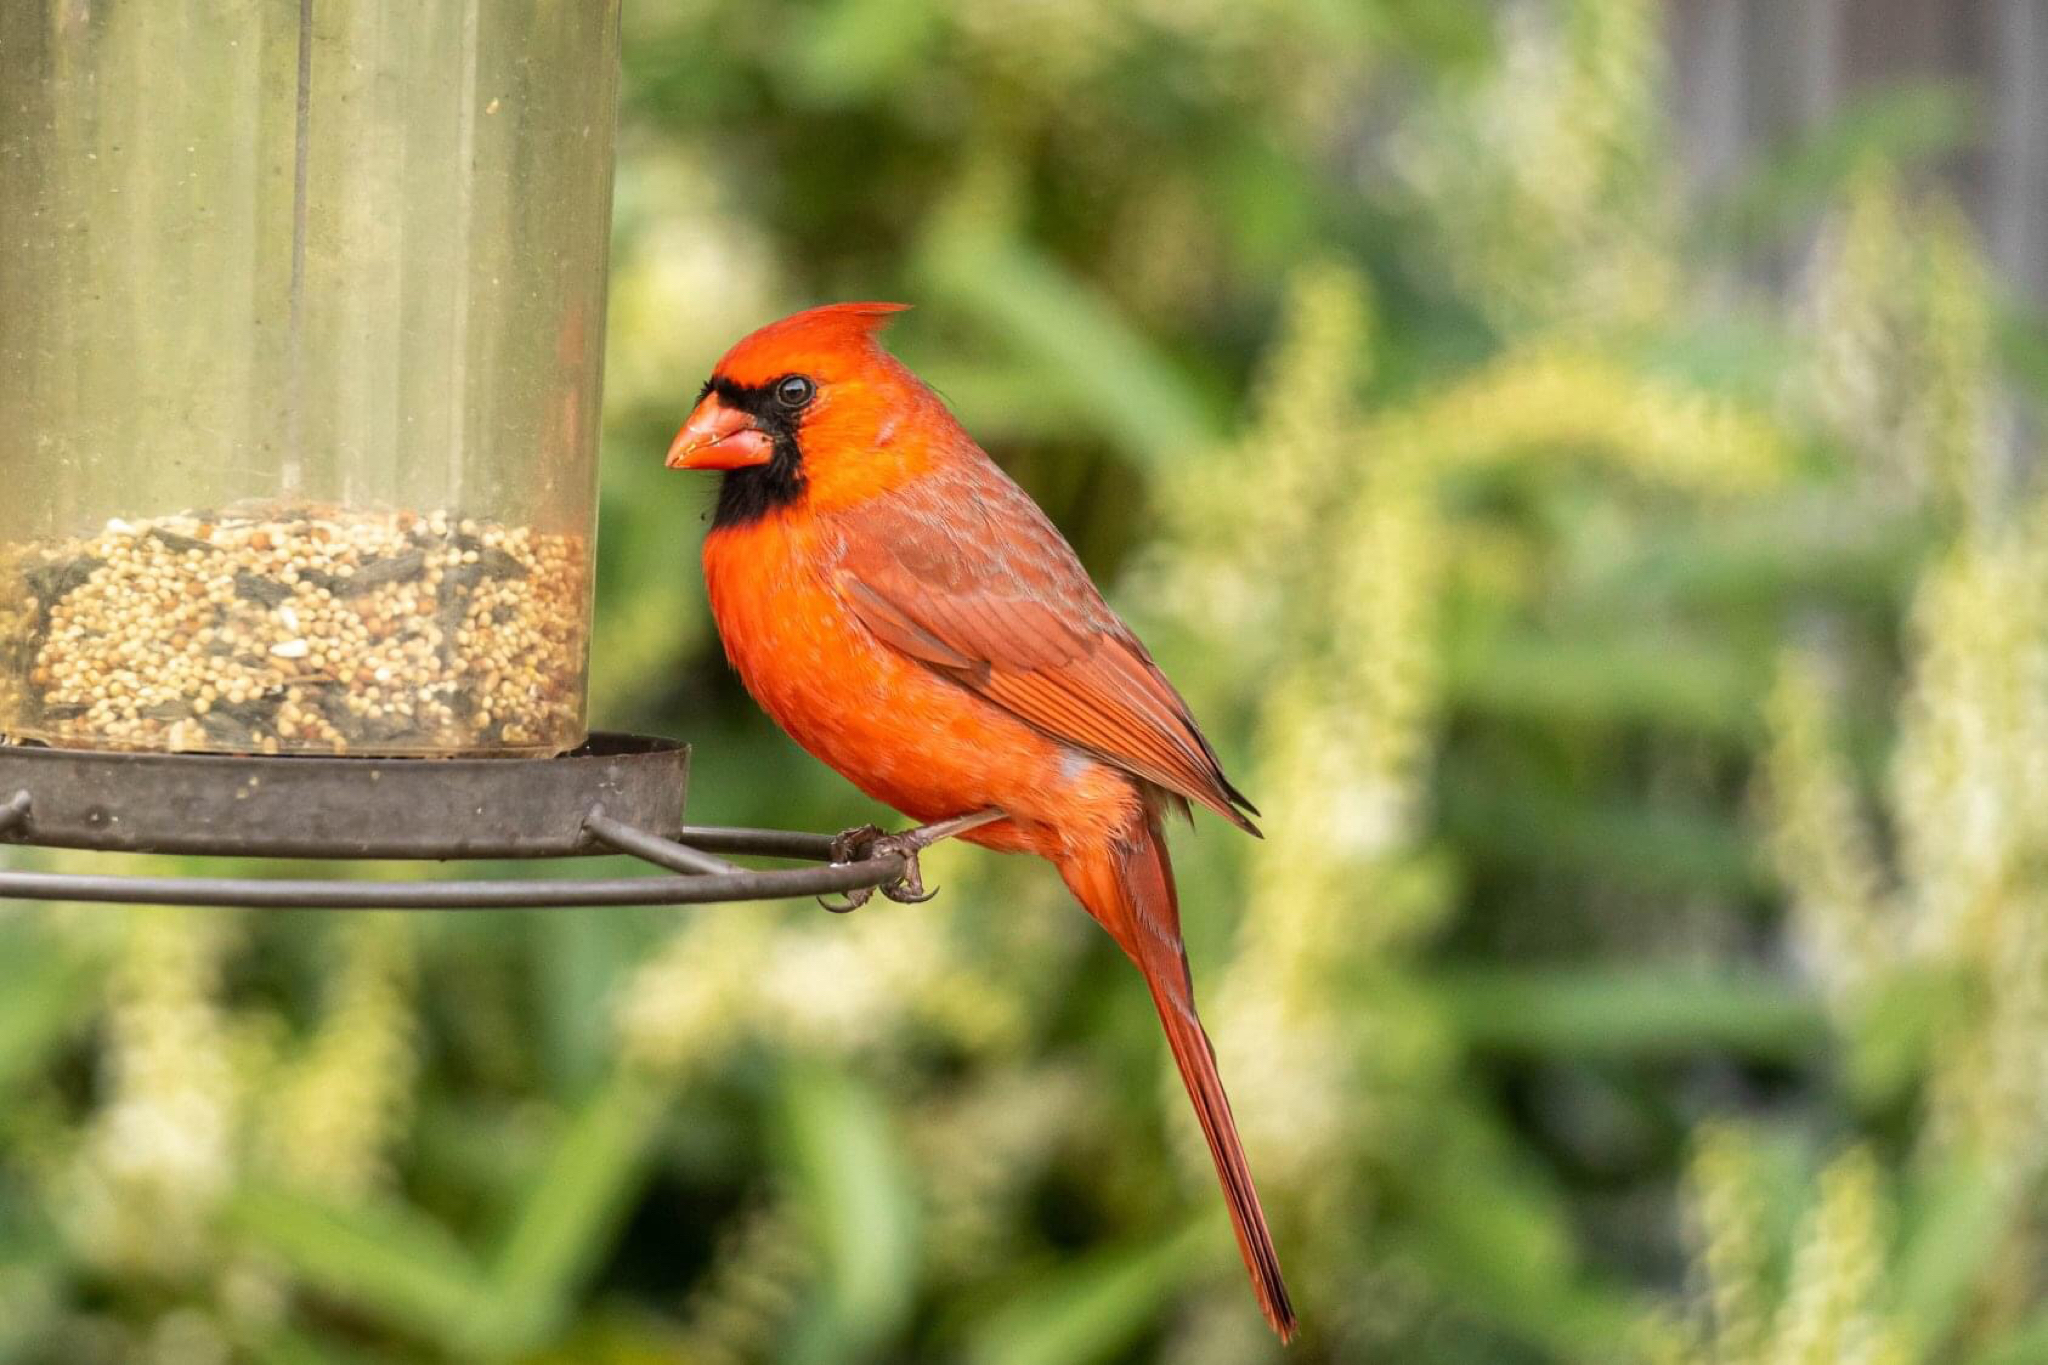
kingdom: Animalia
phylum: Chordata
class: Aves
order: Passeriformes
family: Cardinalidae
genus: Cardinalis
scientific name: Cardinalis cardinalis
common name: Northern cardinal
